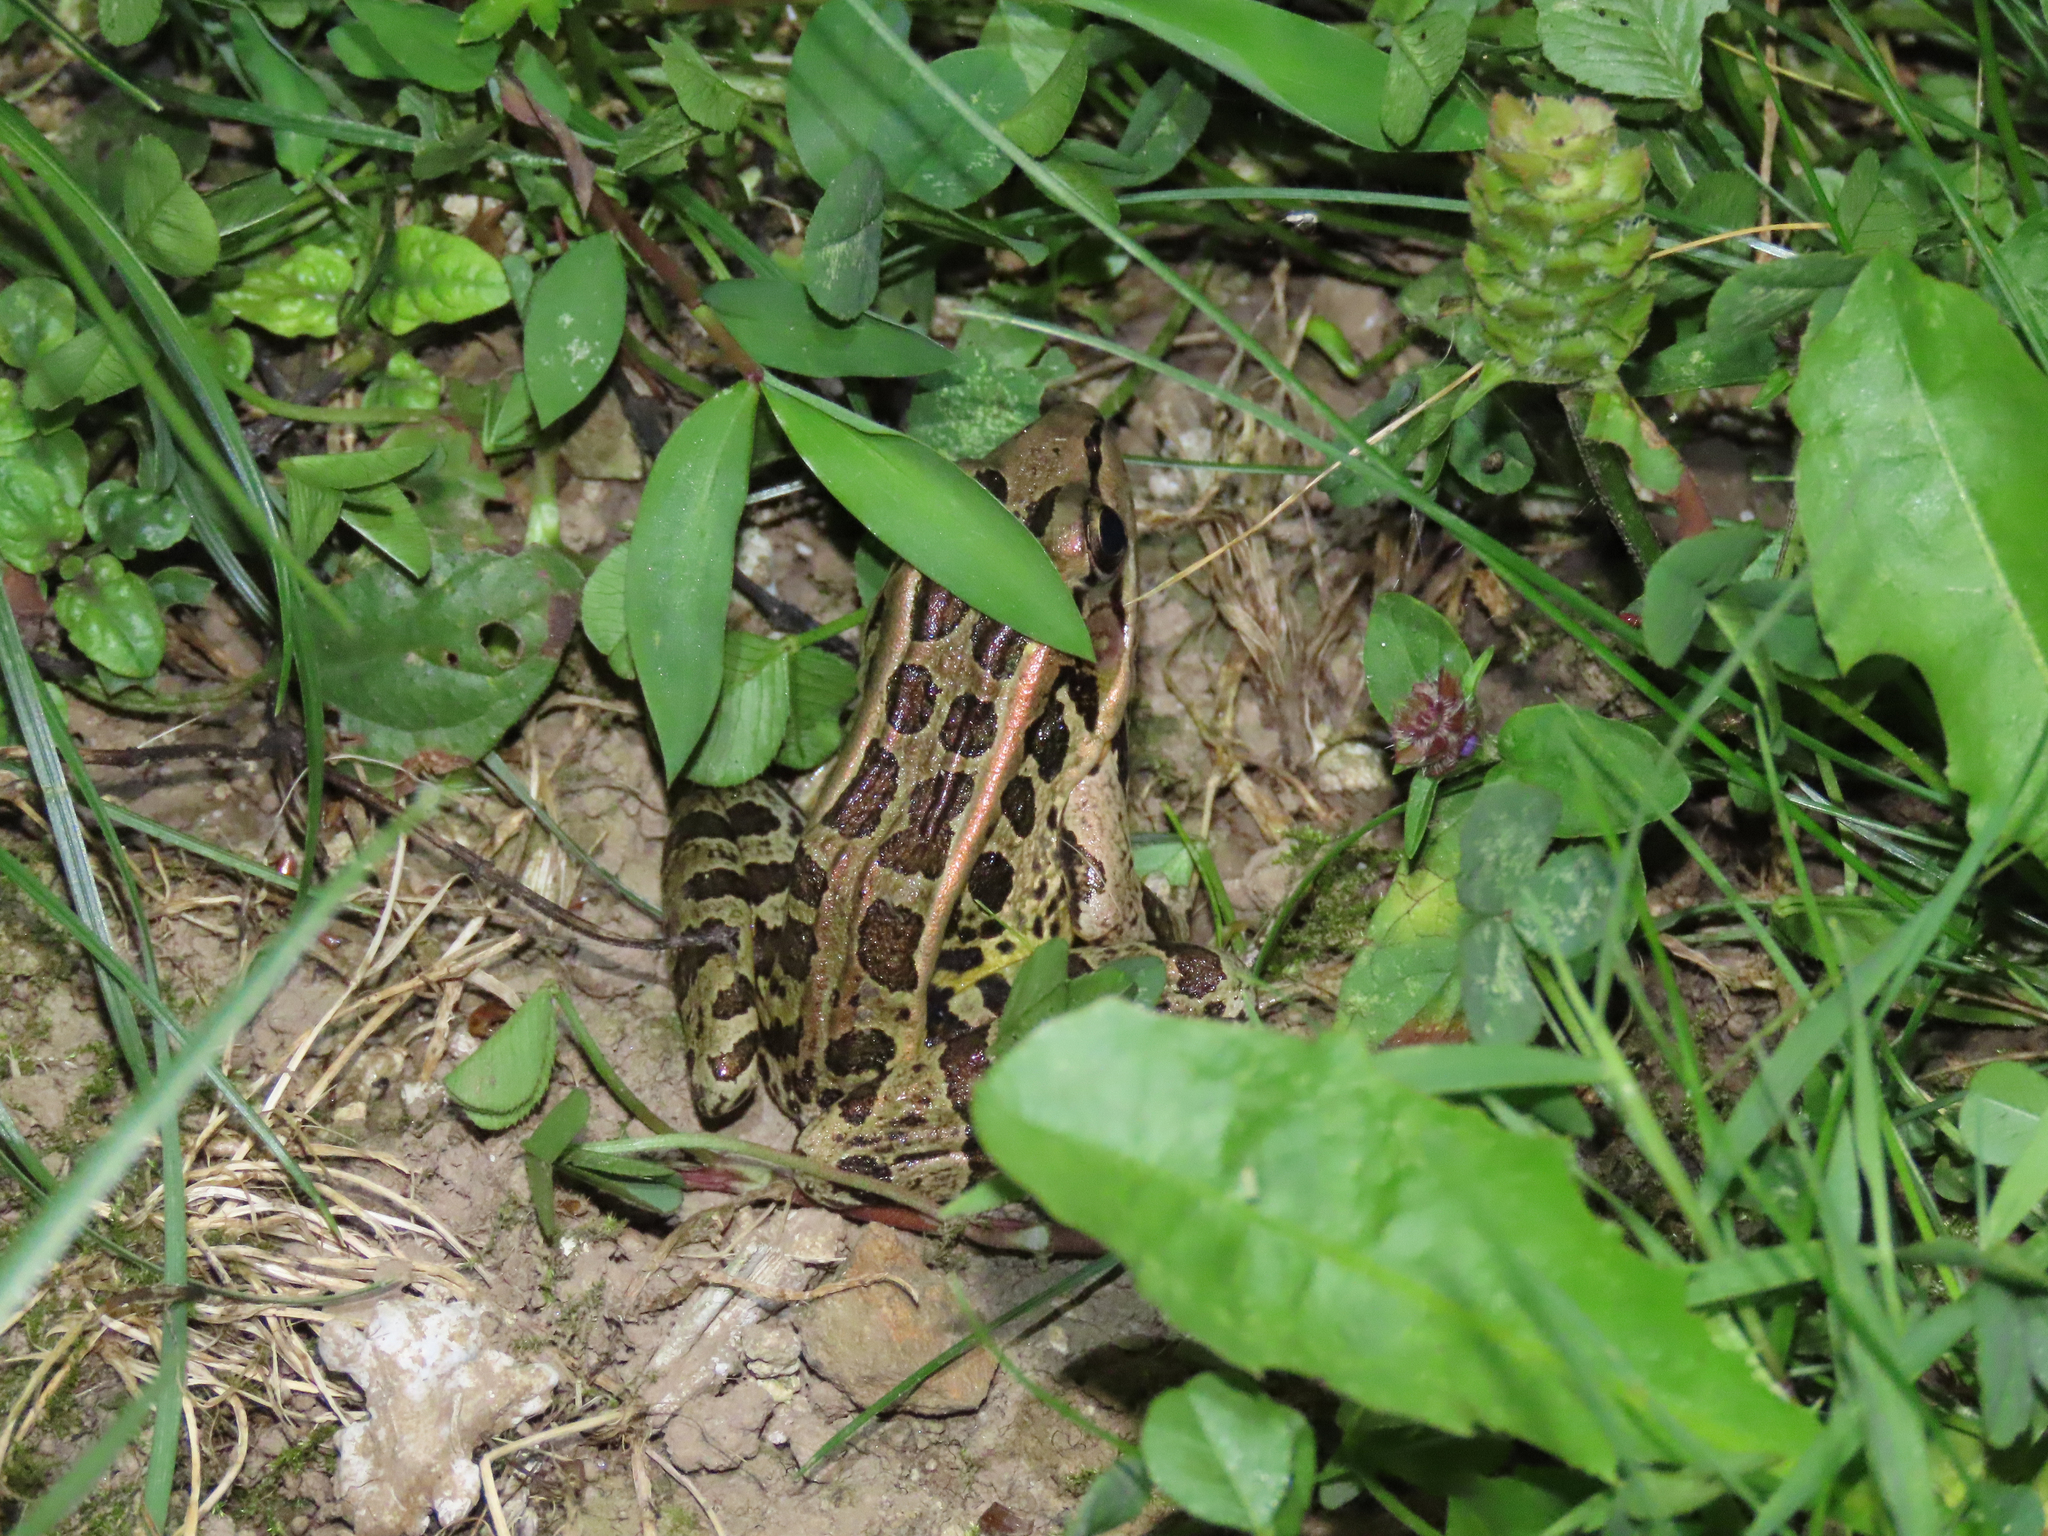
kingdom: Animalia
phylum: Chordata
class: Amphibia
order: Anura
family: Ranidae
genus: Lithobates
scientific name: Lithobates palustris
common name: Pickerel frog
